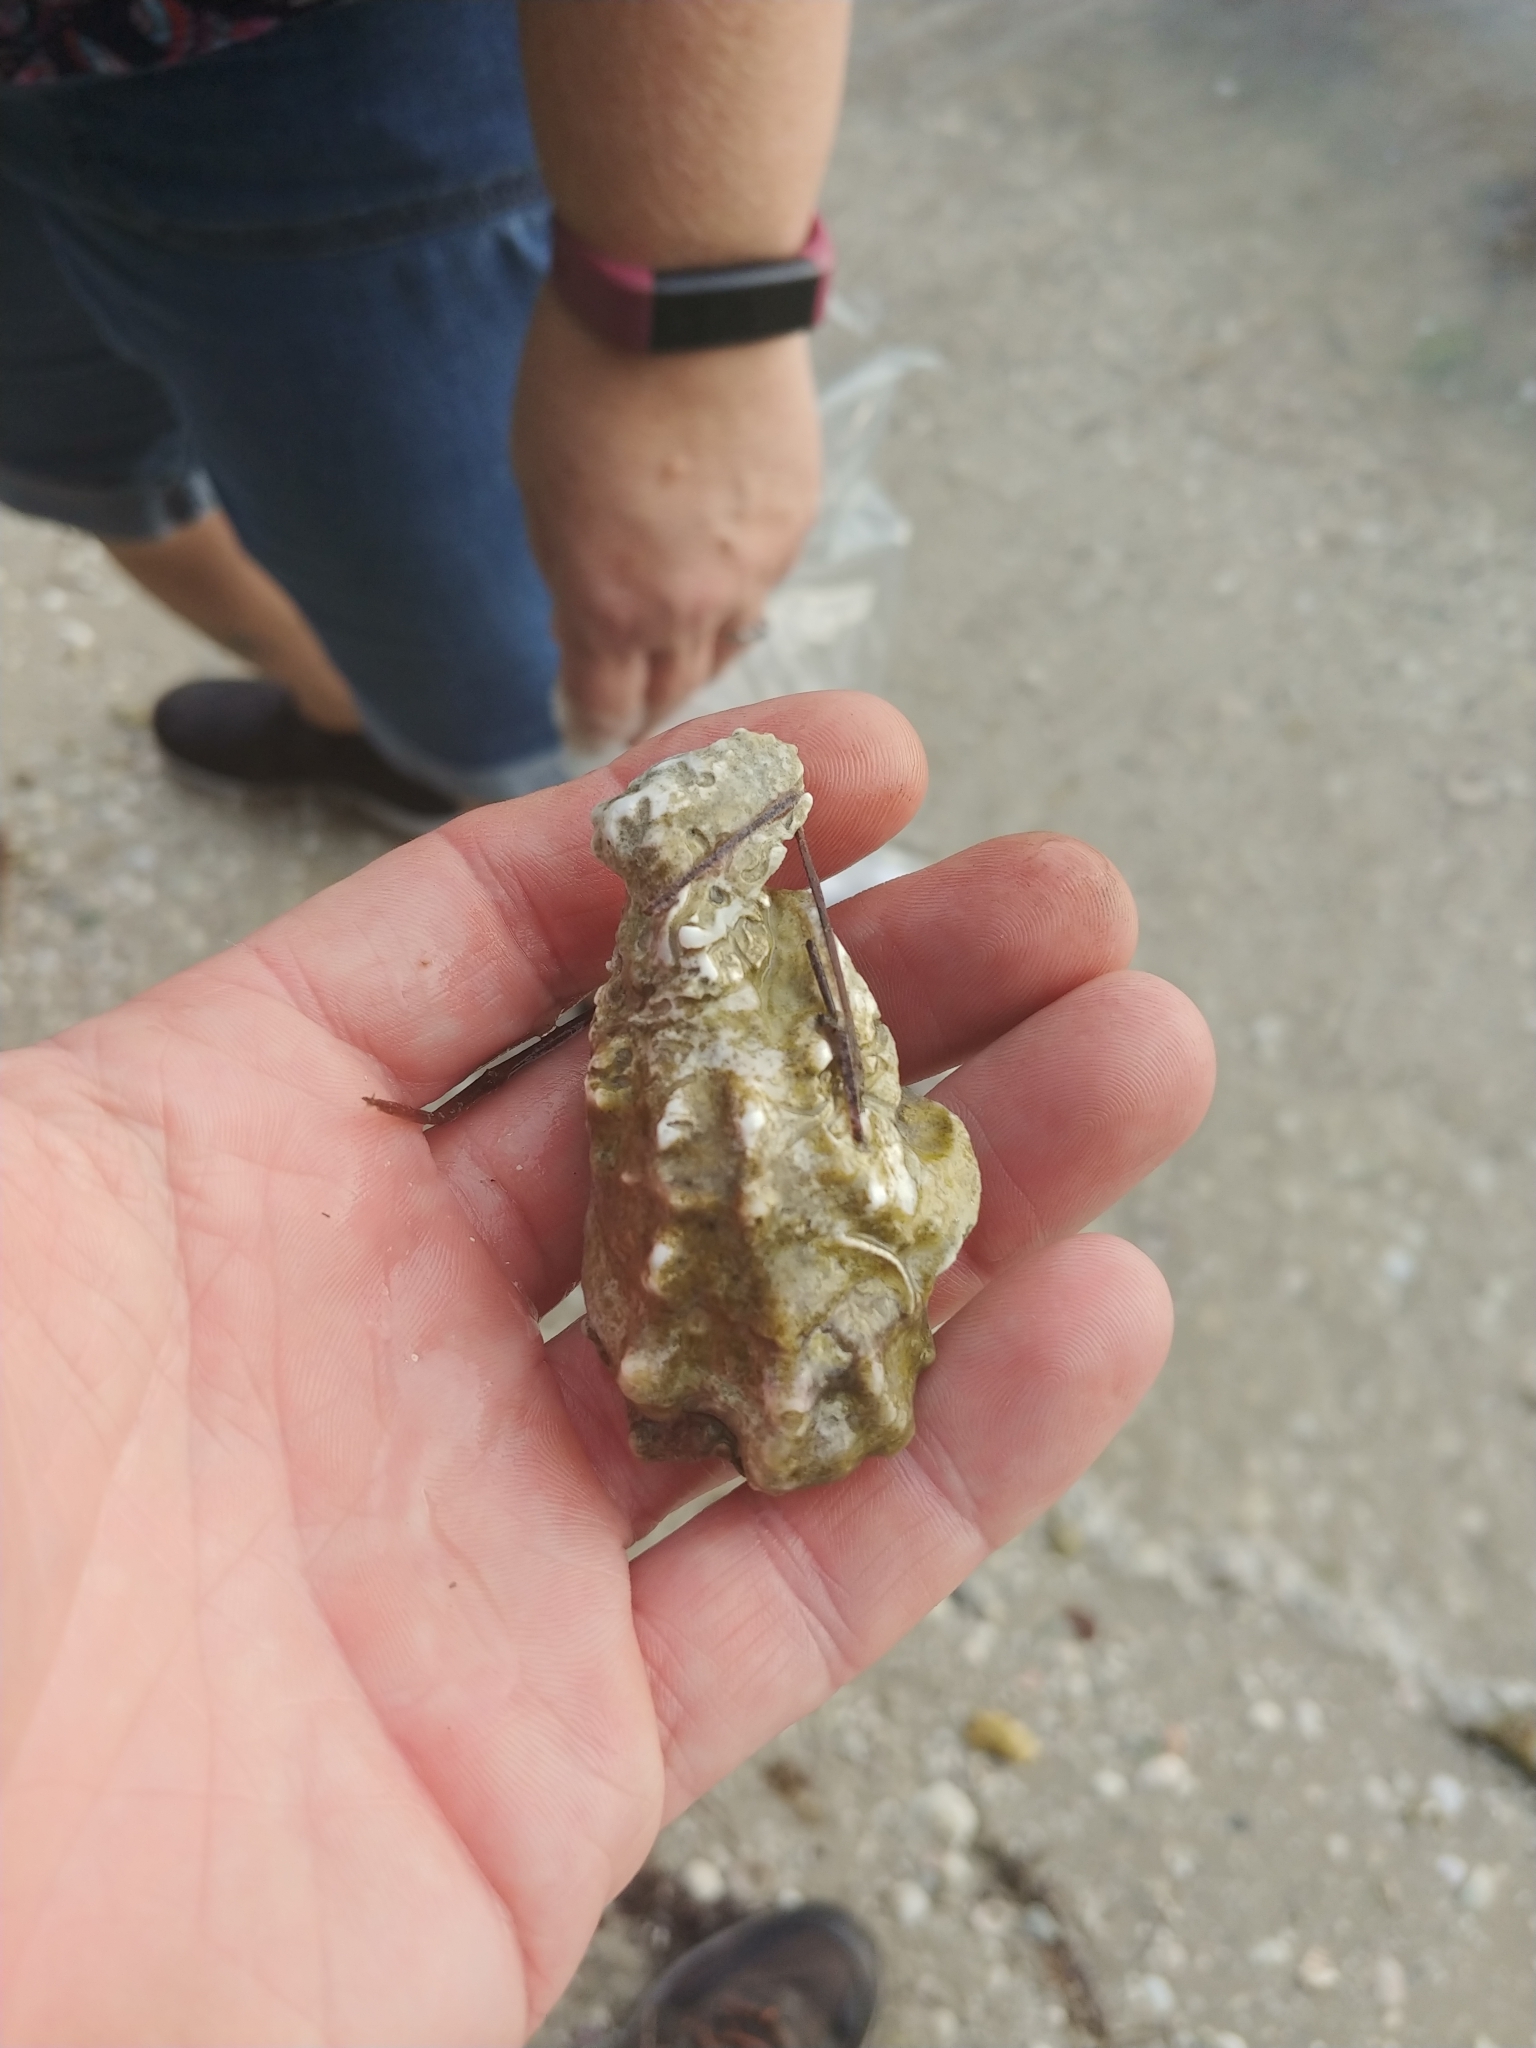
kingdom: Animalia
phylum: Mollusca
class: Bivalvia
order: Ostreida
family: Ostreidae
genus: Crassostrea
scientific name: Crassostrea virginica
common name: American oyster
